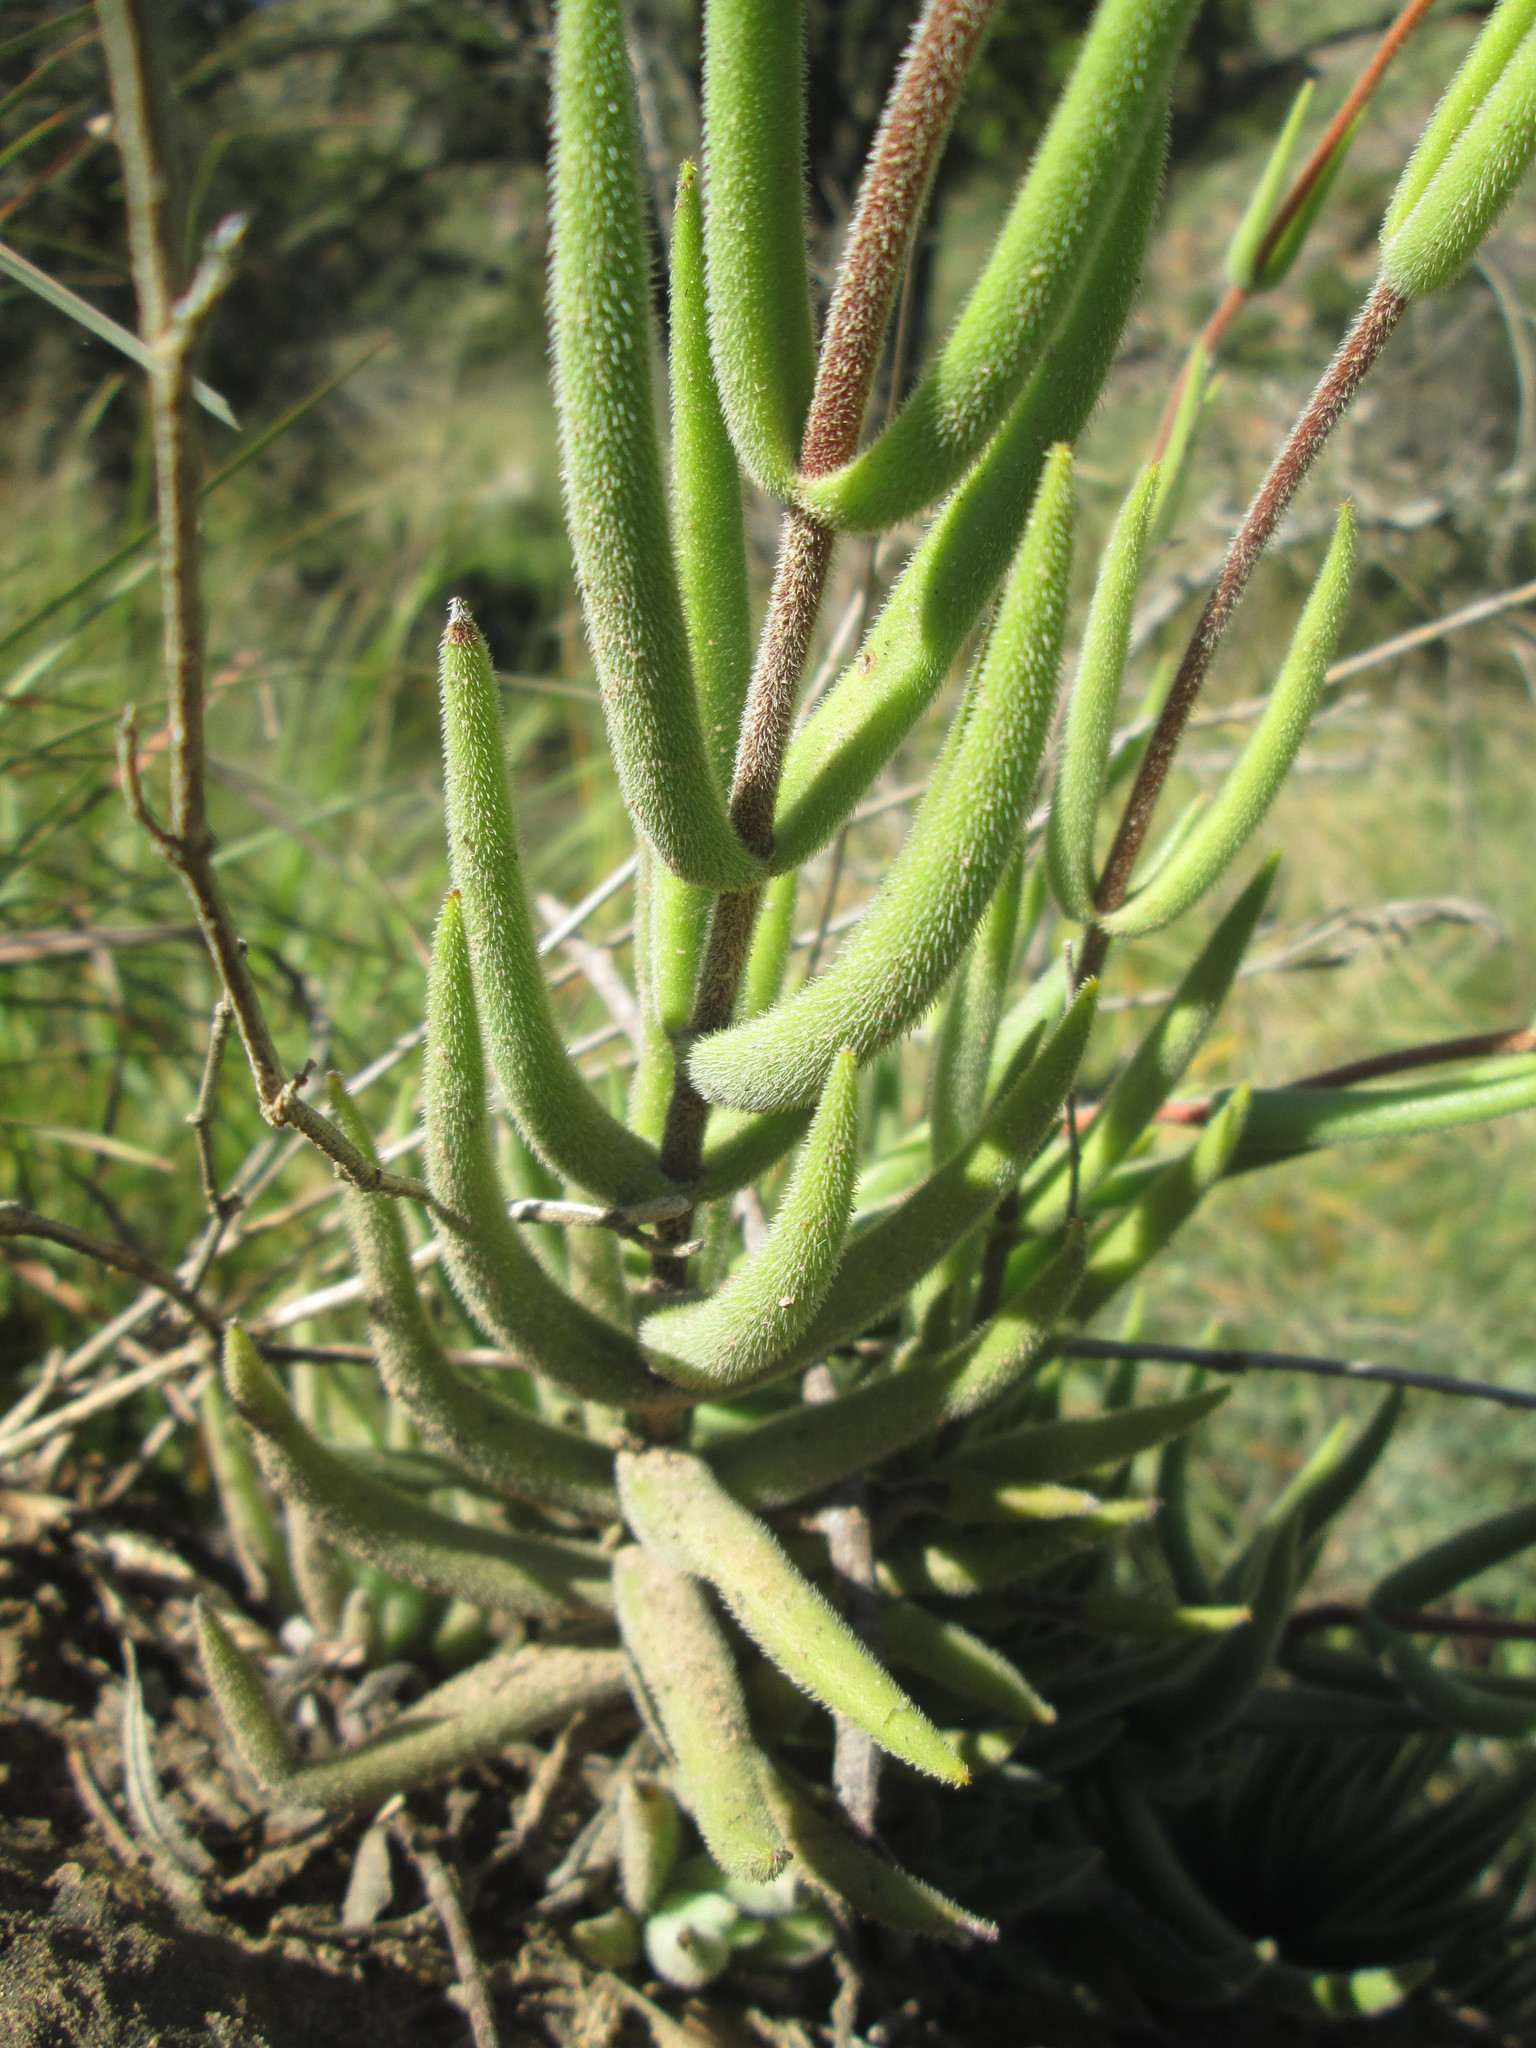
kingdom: Plantae
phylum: Tracheophyta
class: Magnoliopsida
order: Saxifragales
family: Crassulaceae
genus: Crassula
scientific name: Crassula mesembryanthoides
